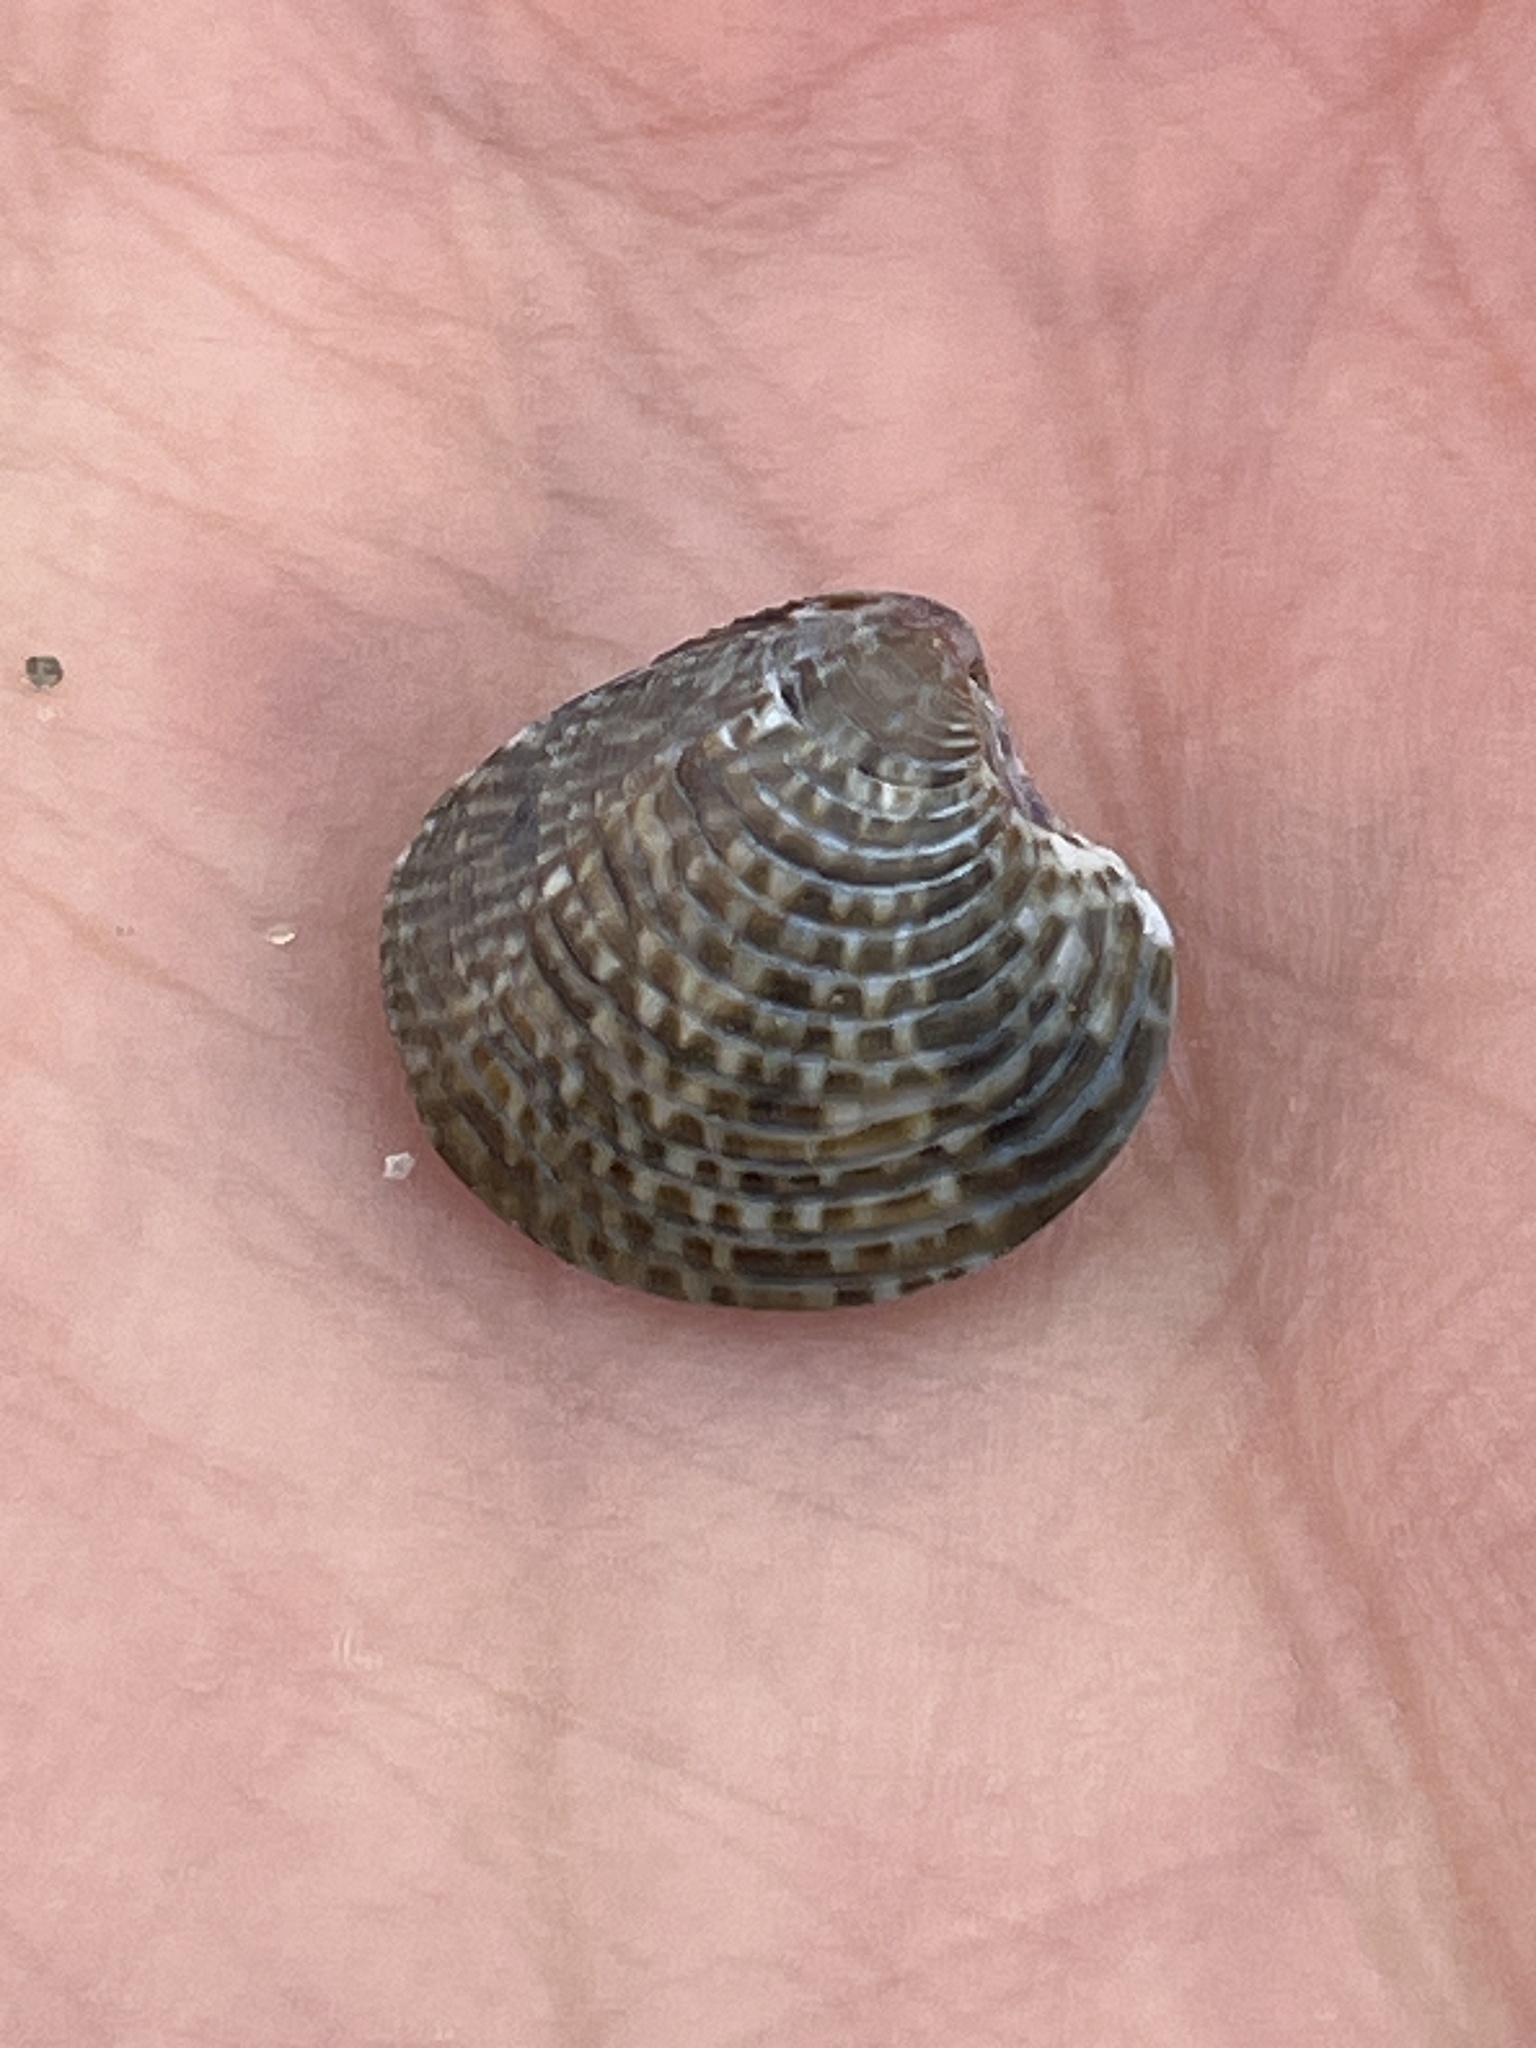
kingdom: Animalia
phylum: Mollusca
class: Bivalvia
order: Venerida
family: Veneridae
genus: Chamelea
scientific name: Chamelea gallina
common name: Chicken venus
